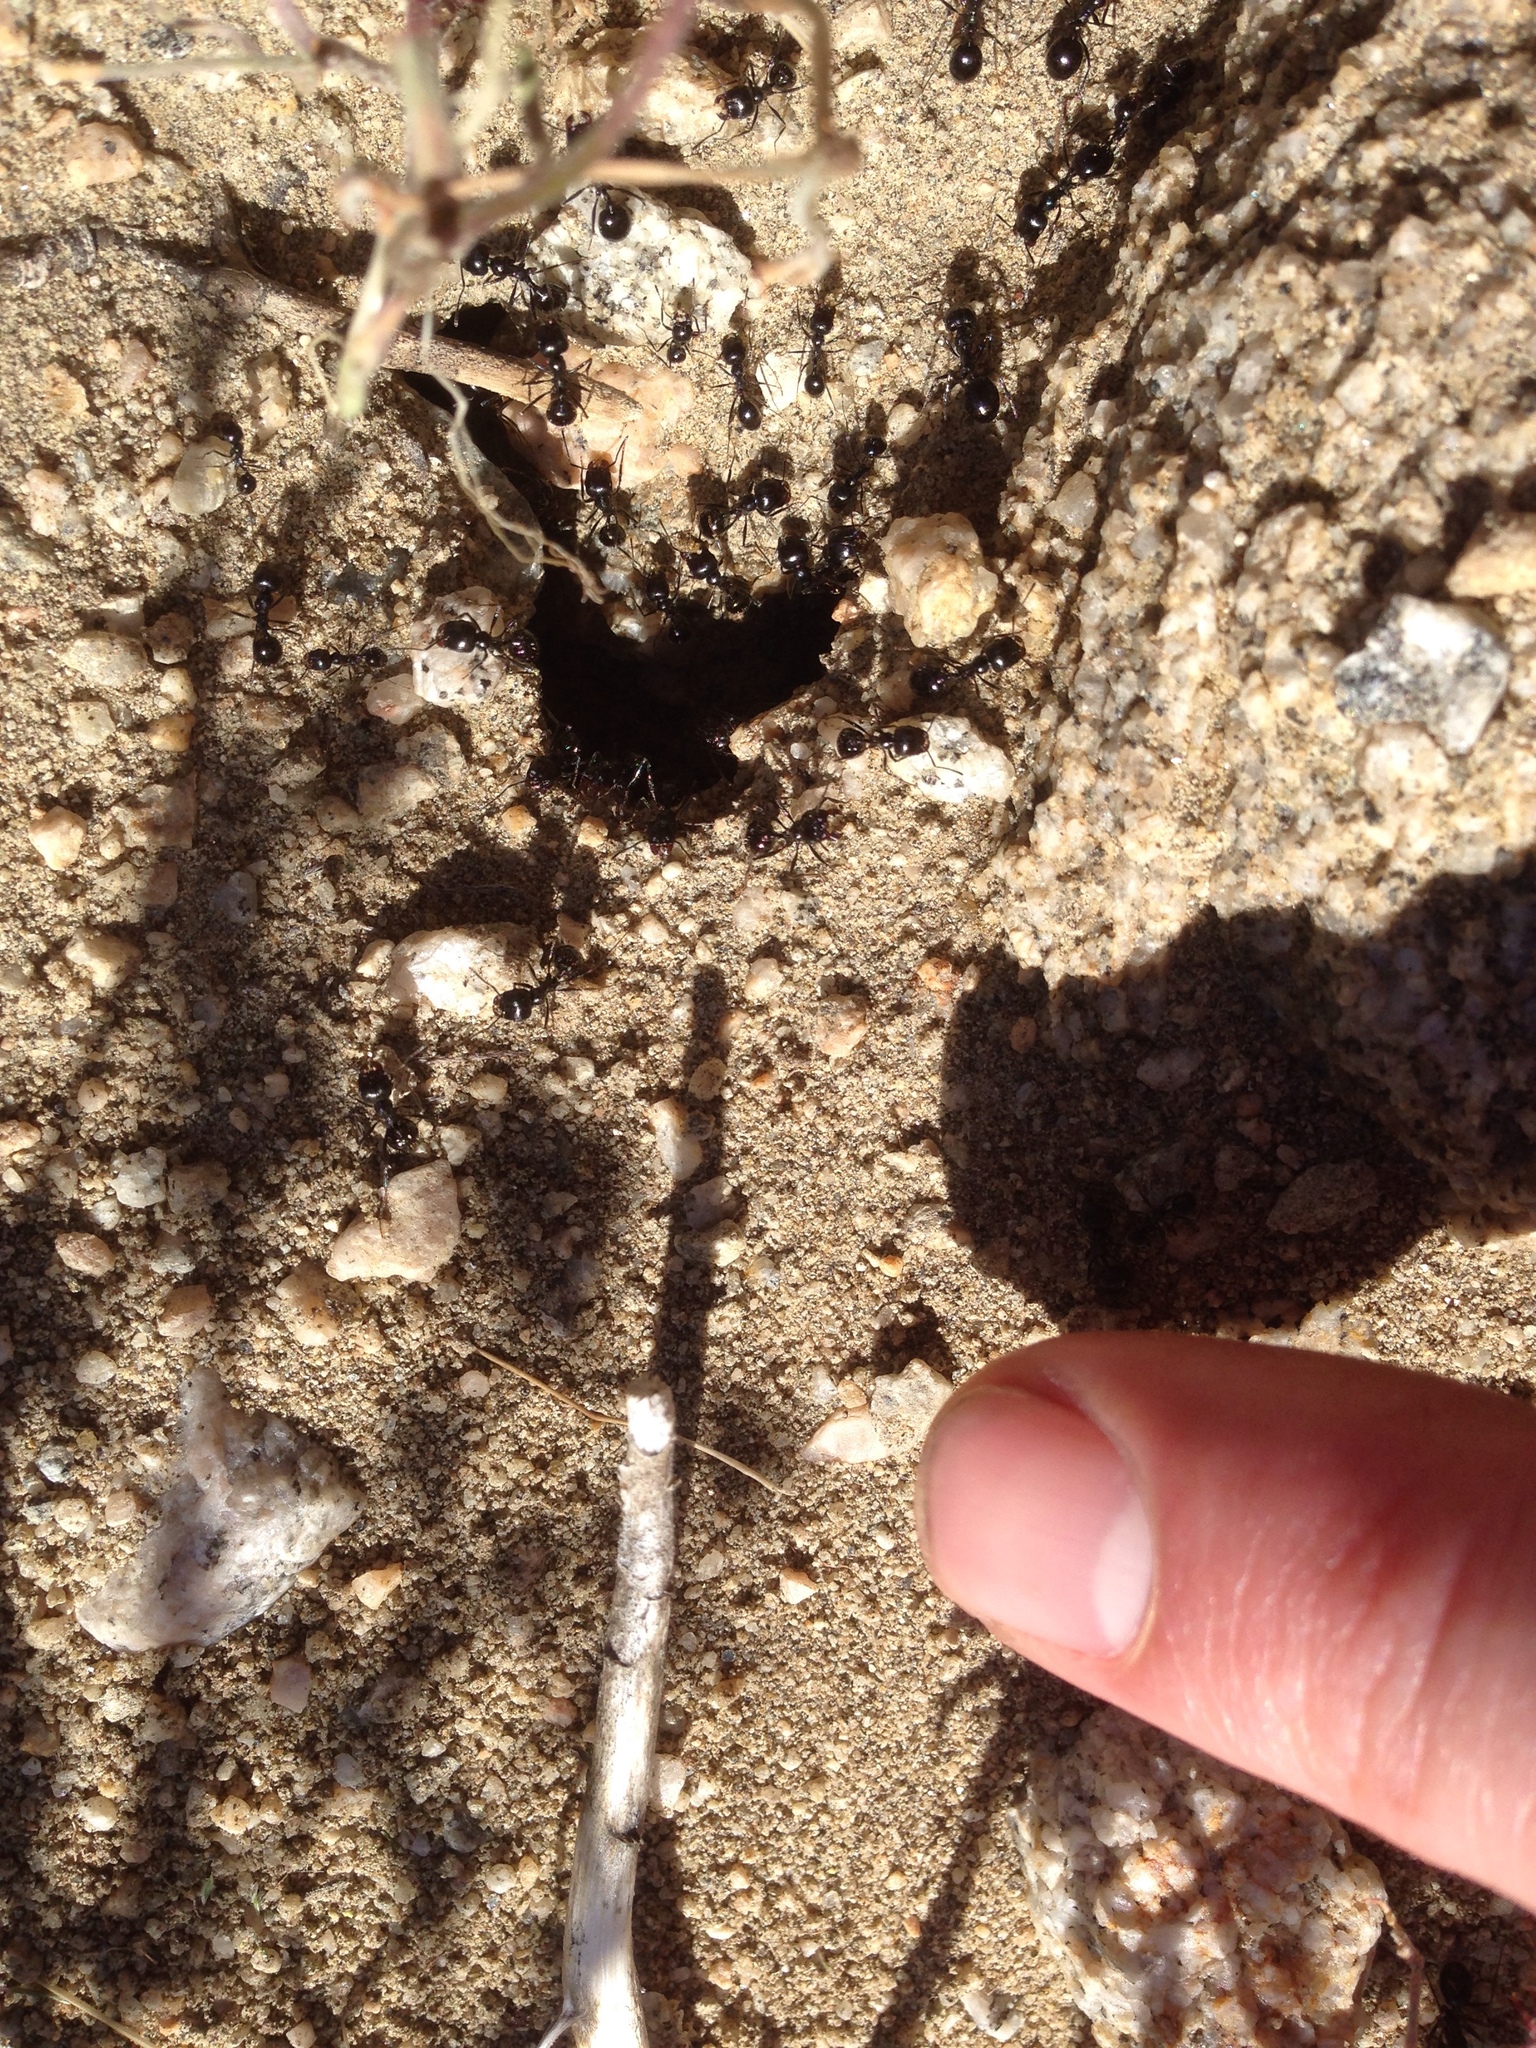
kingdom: Animalia
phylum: Arthropoda
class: Insecta
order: Hymenoptera
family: Formicidae
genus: Messor
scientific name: Messor pergandei
